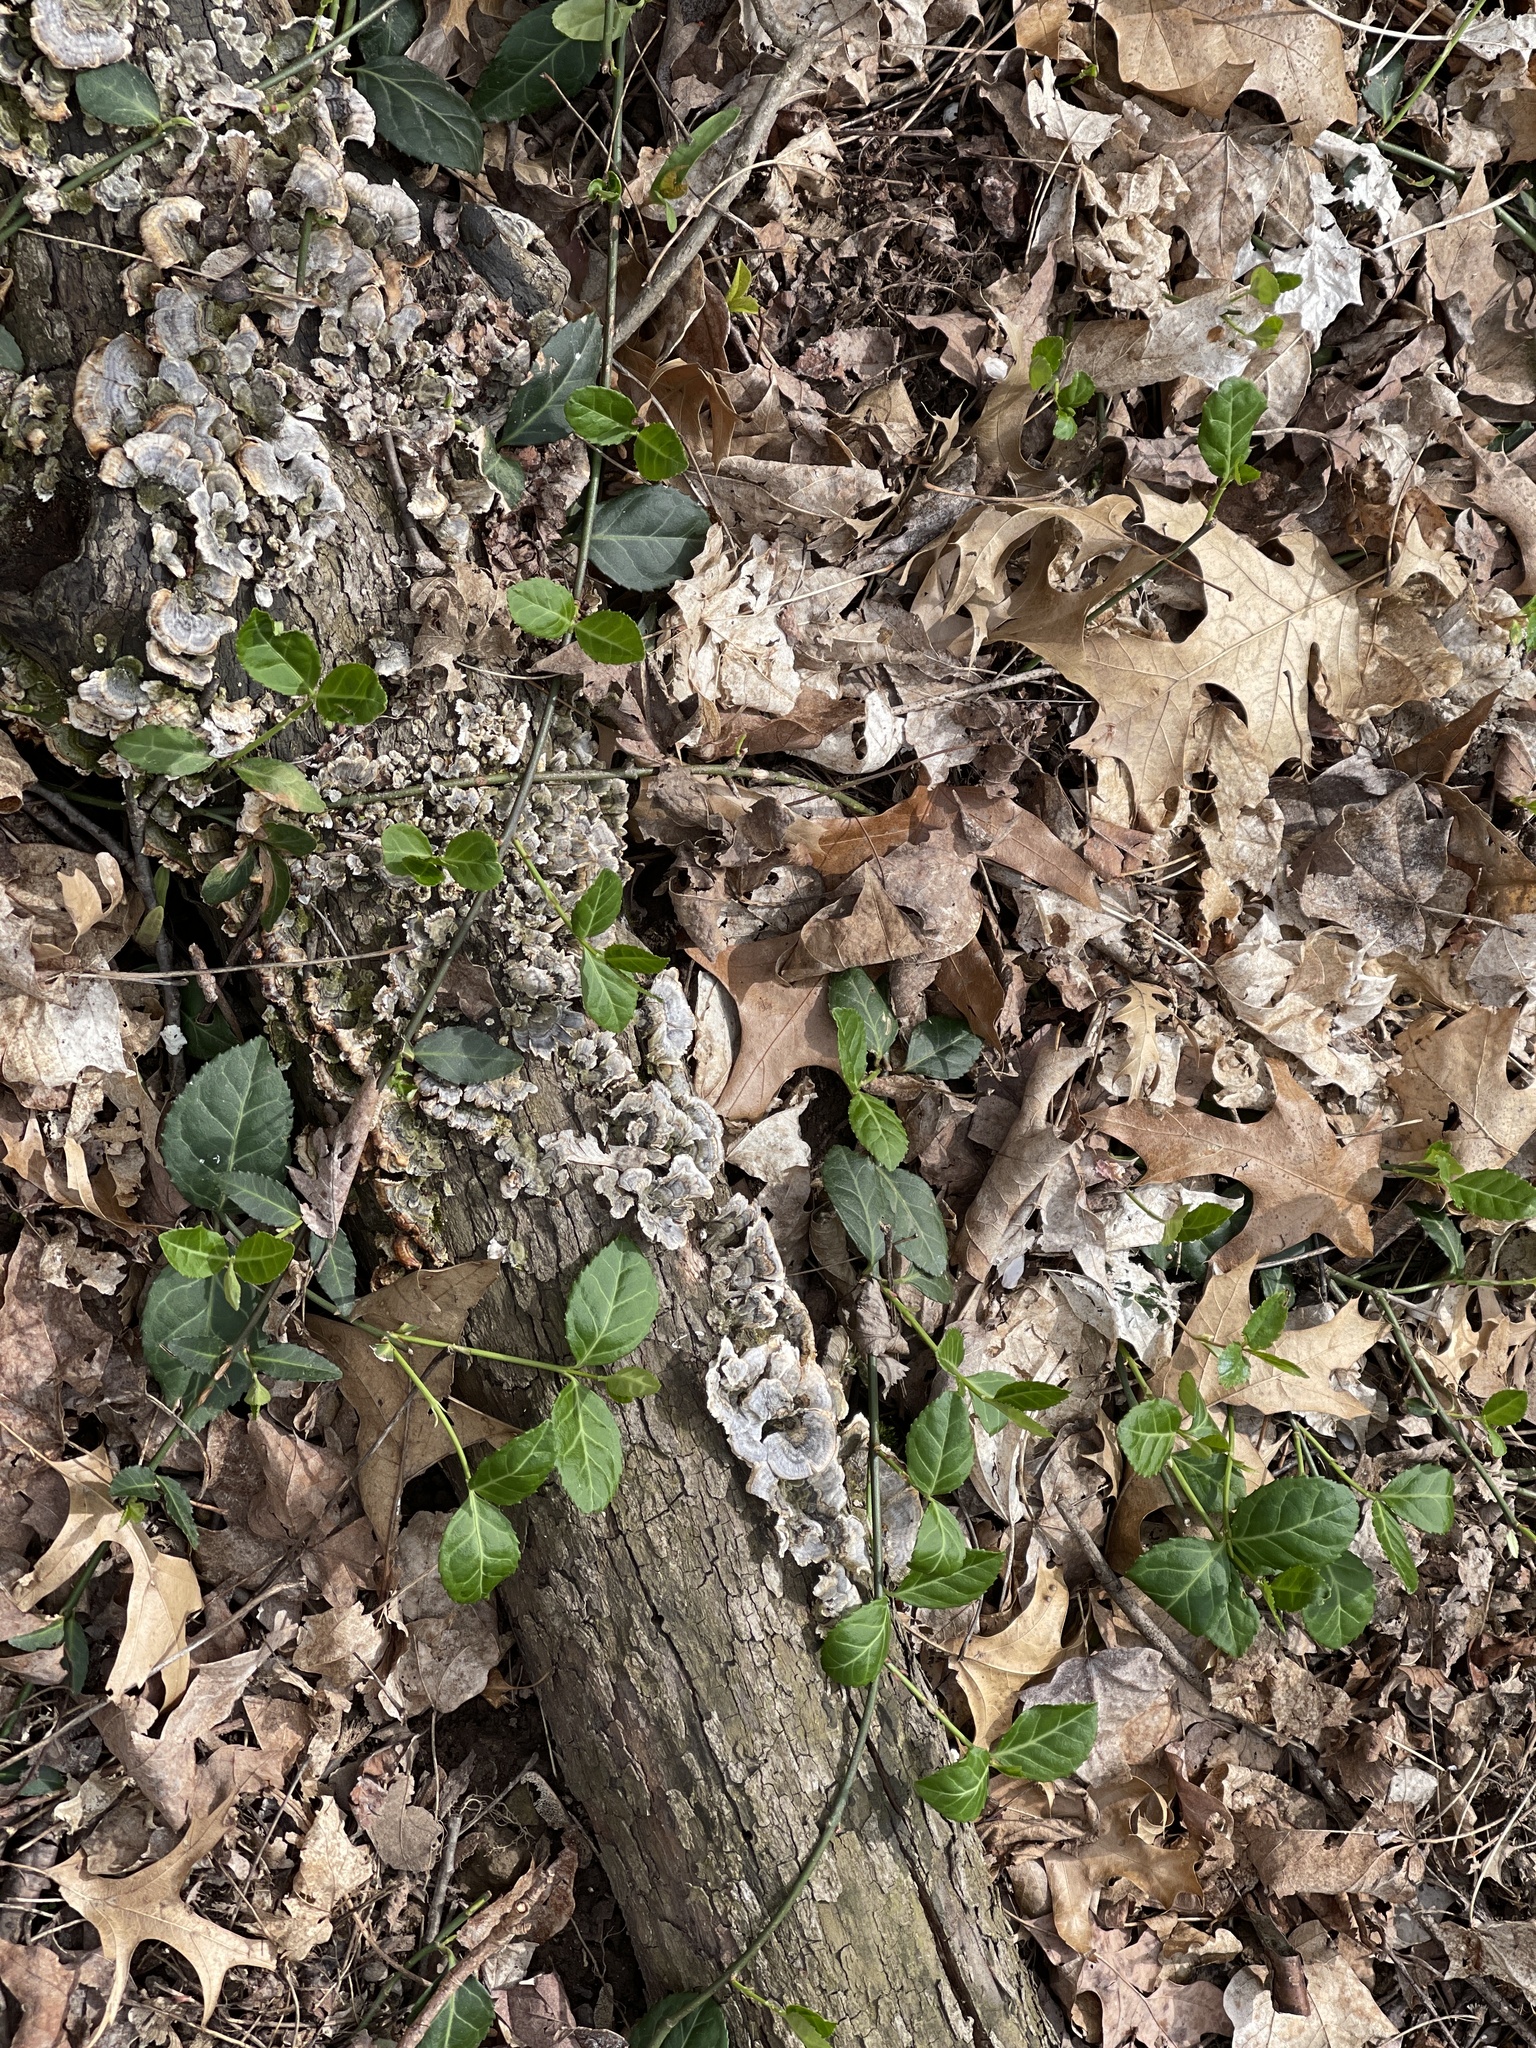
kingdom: Plantae
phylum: Tracheophyta
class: Magnoliopsida
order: Celastrales
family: Celastraceae
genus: Euonymus
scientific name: Euonymus fortunei
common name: Climbing euonymus
